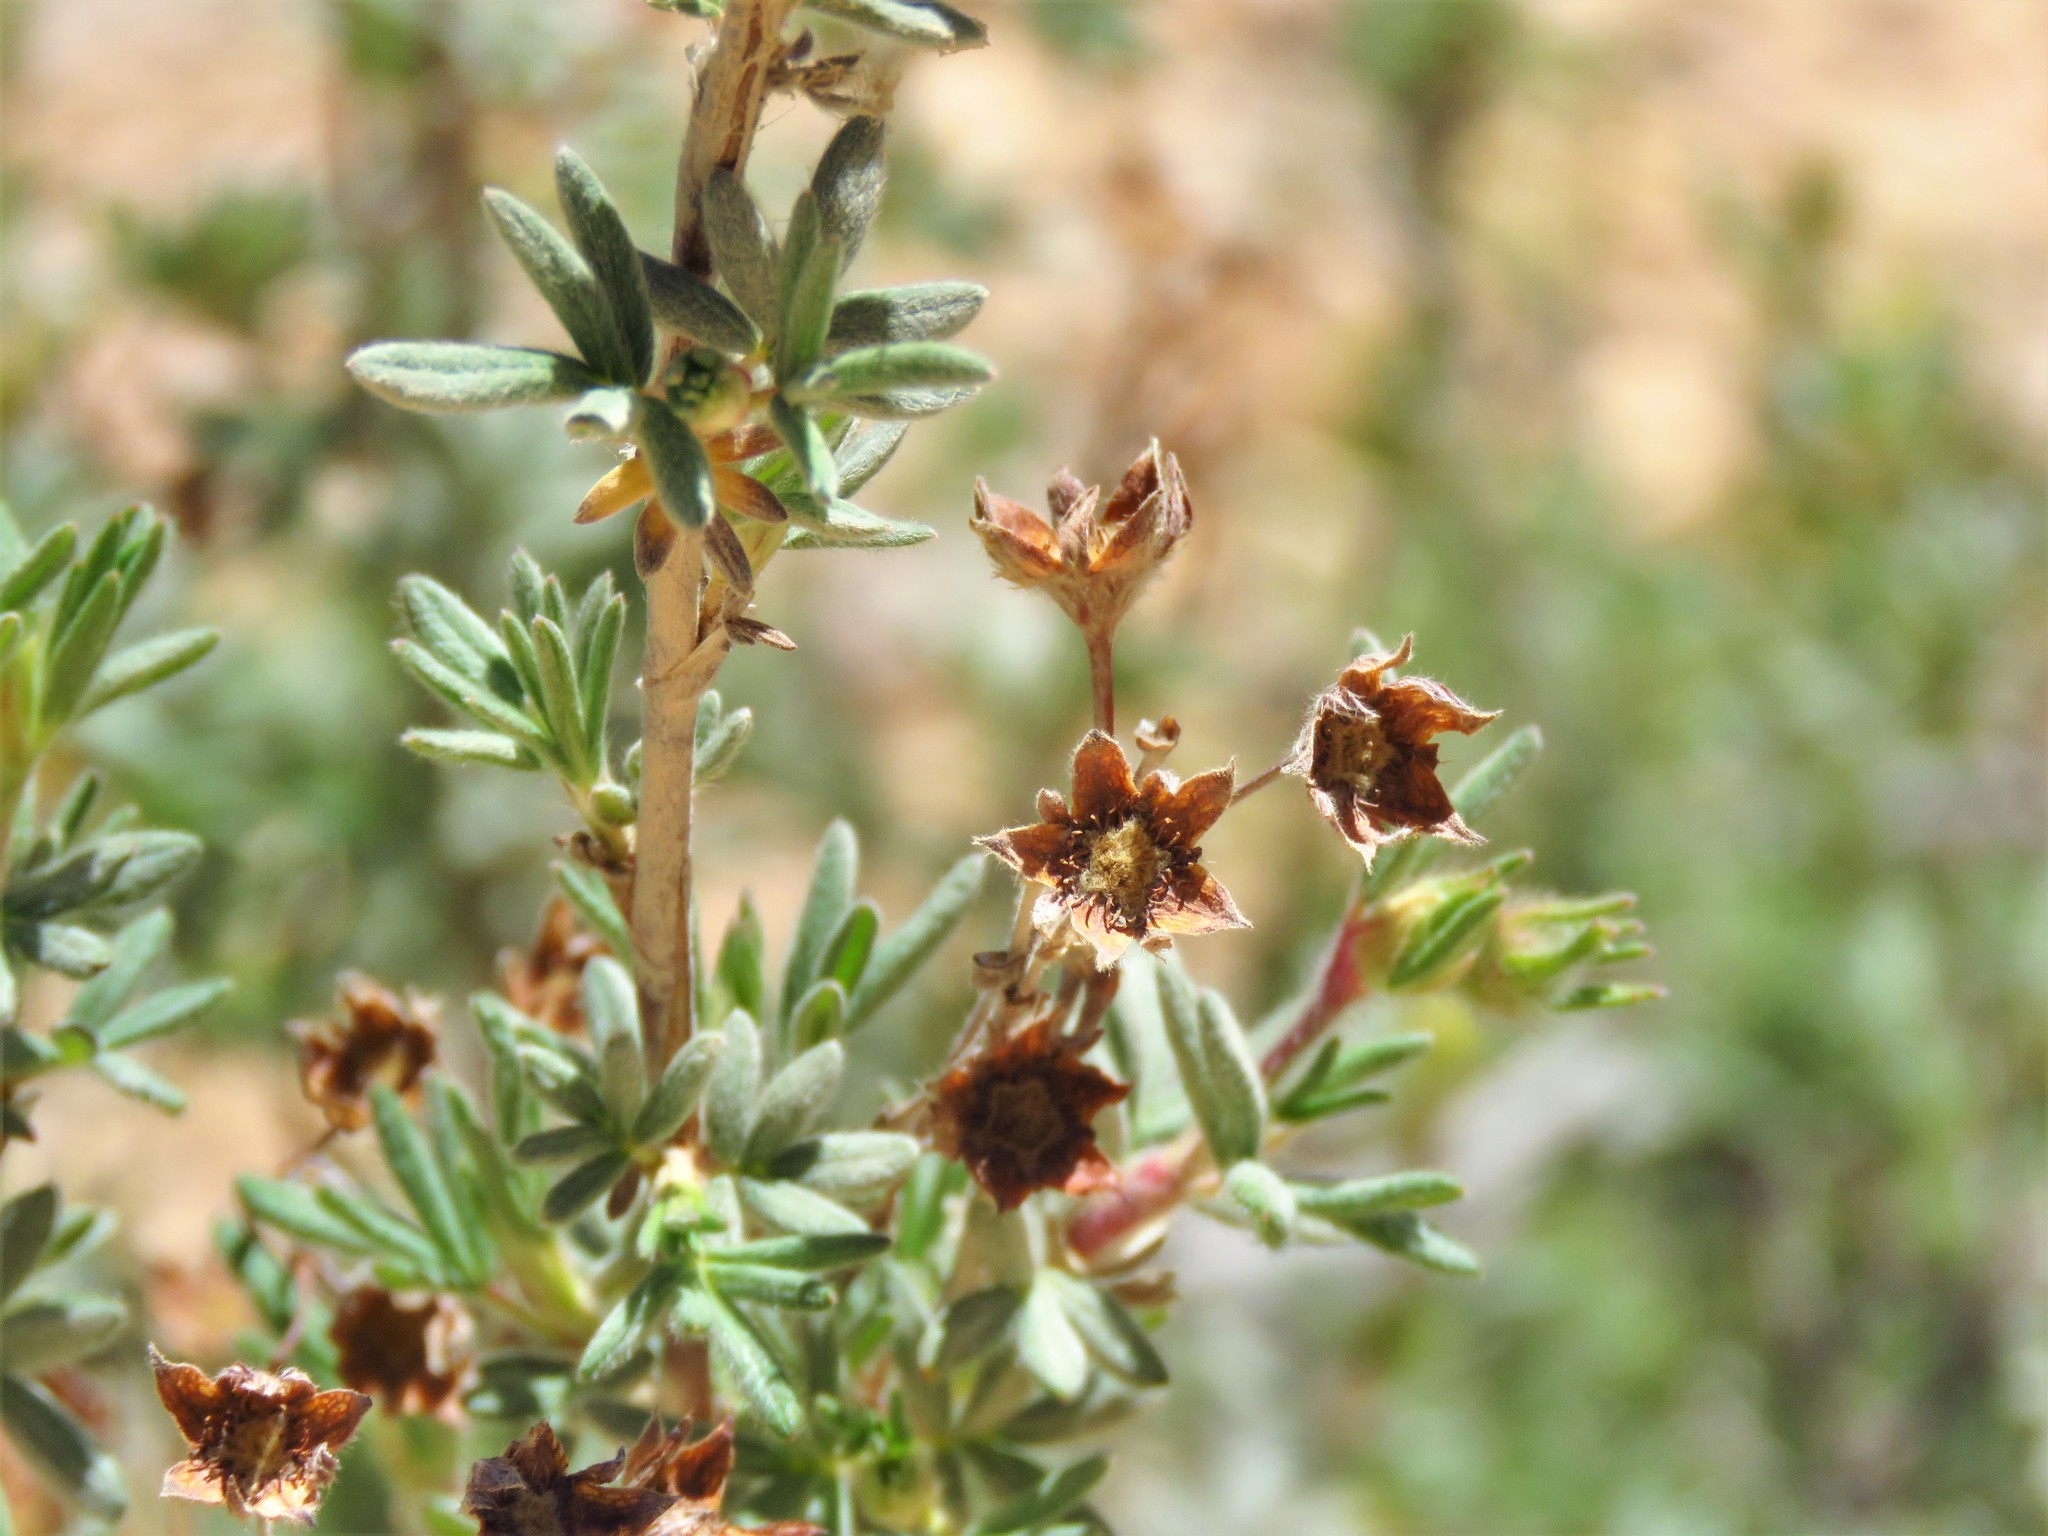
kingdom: Plantae
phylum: Tracheophyta
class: Magnoliopsida
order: Rosales
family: Rosaceae
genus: Dasiphora
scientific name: Dasiphora fruticosa
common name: Shrubby cinquefoil
